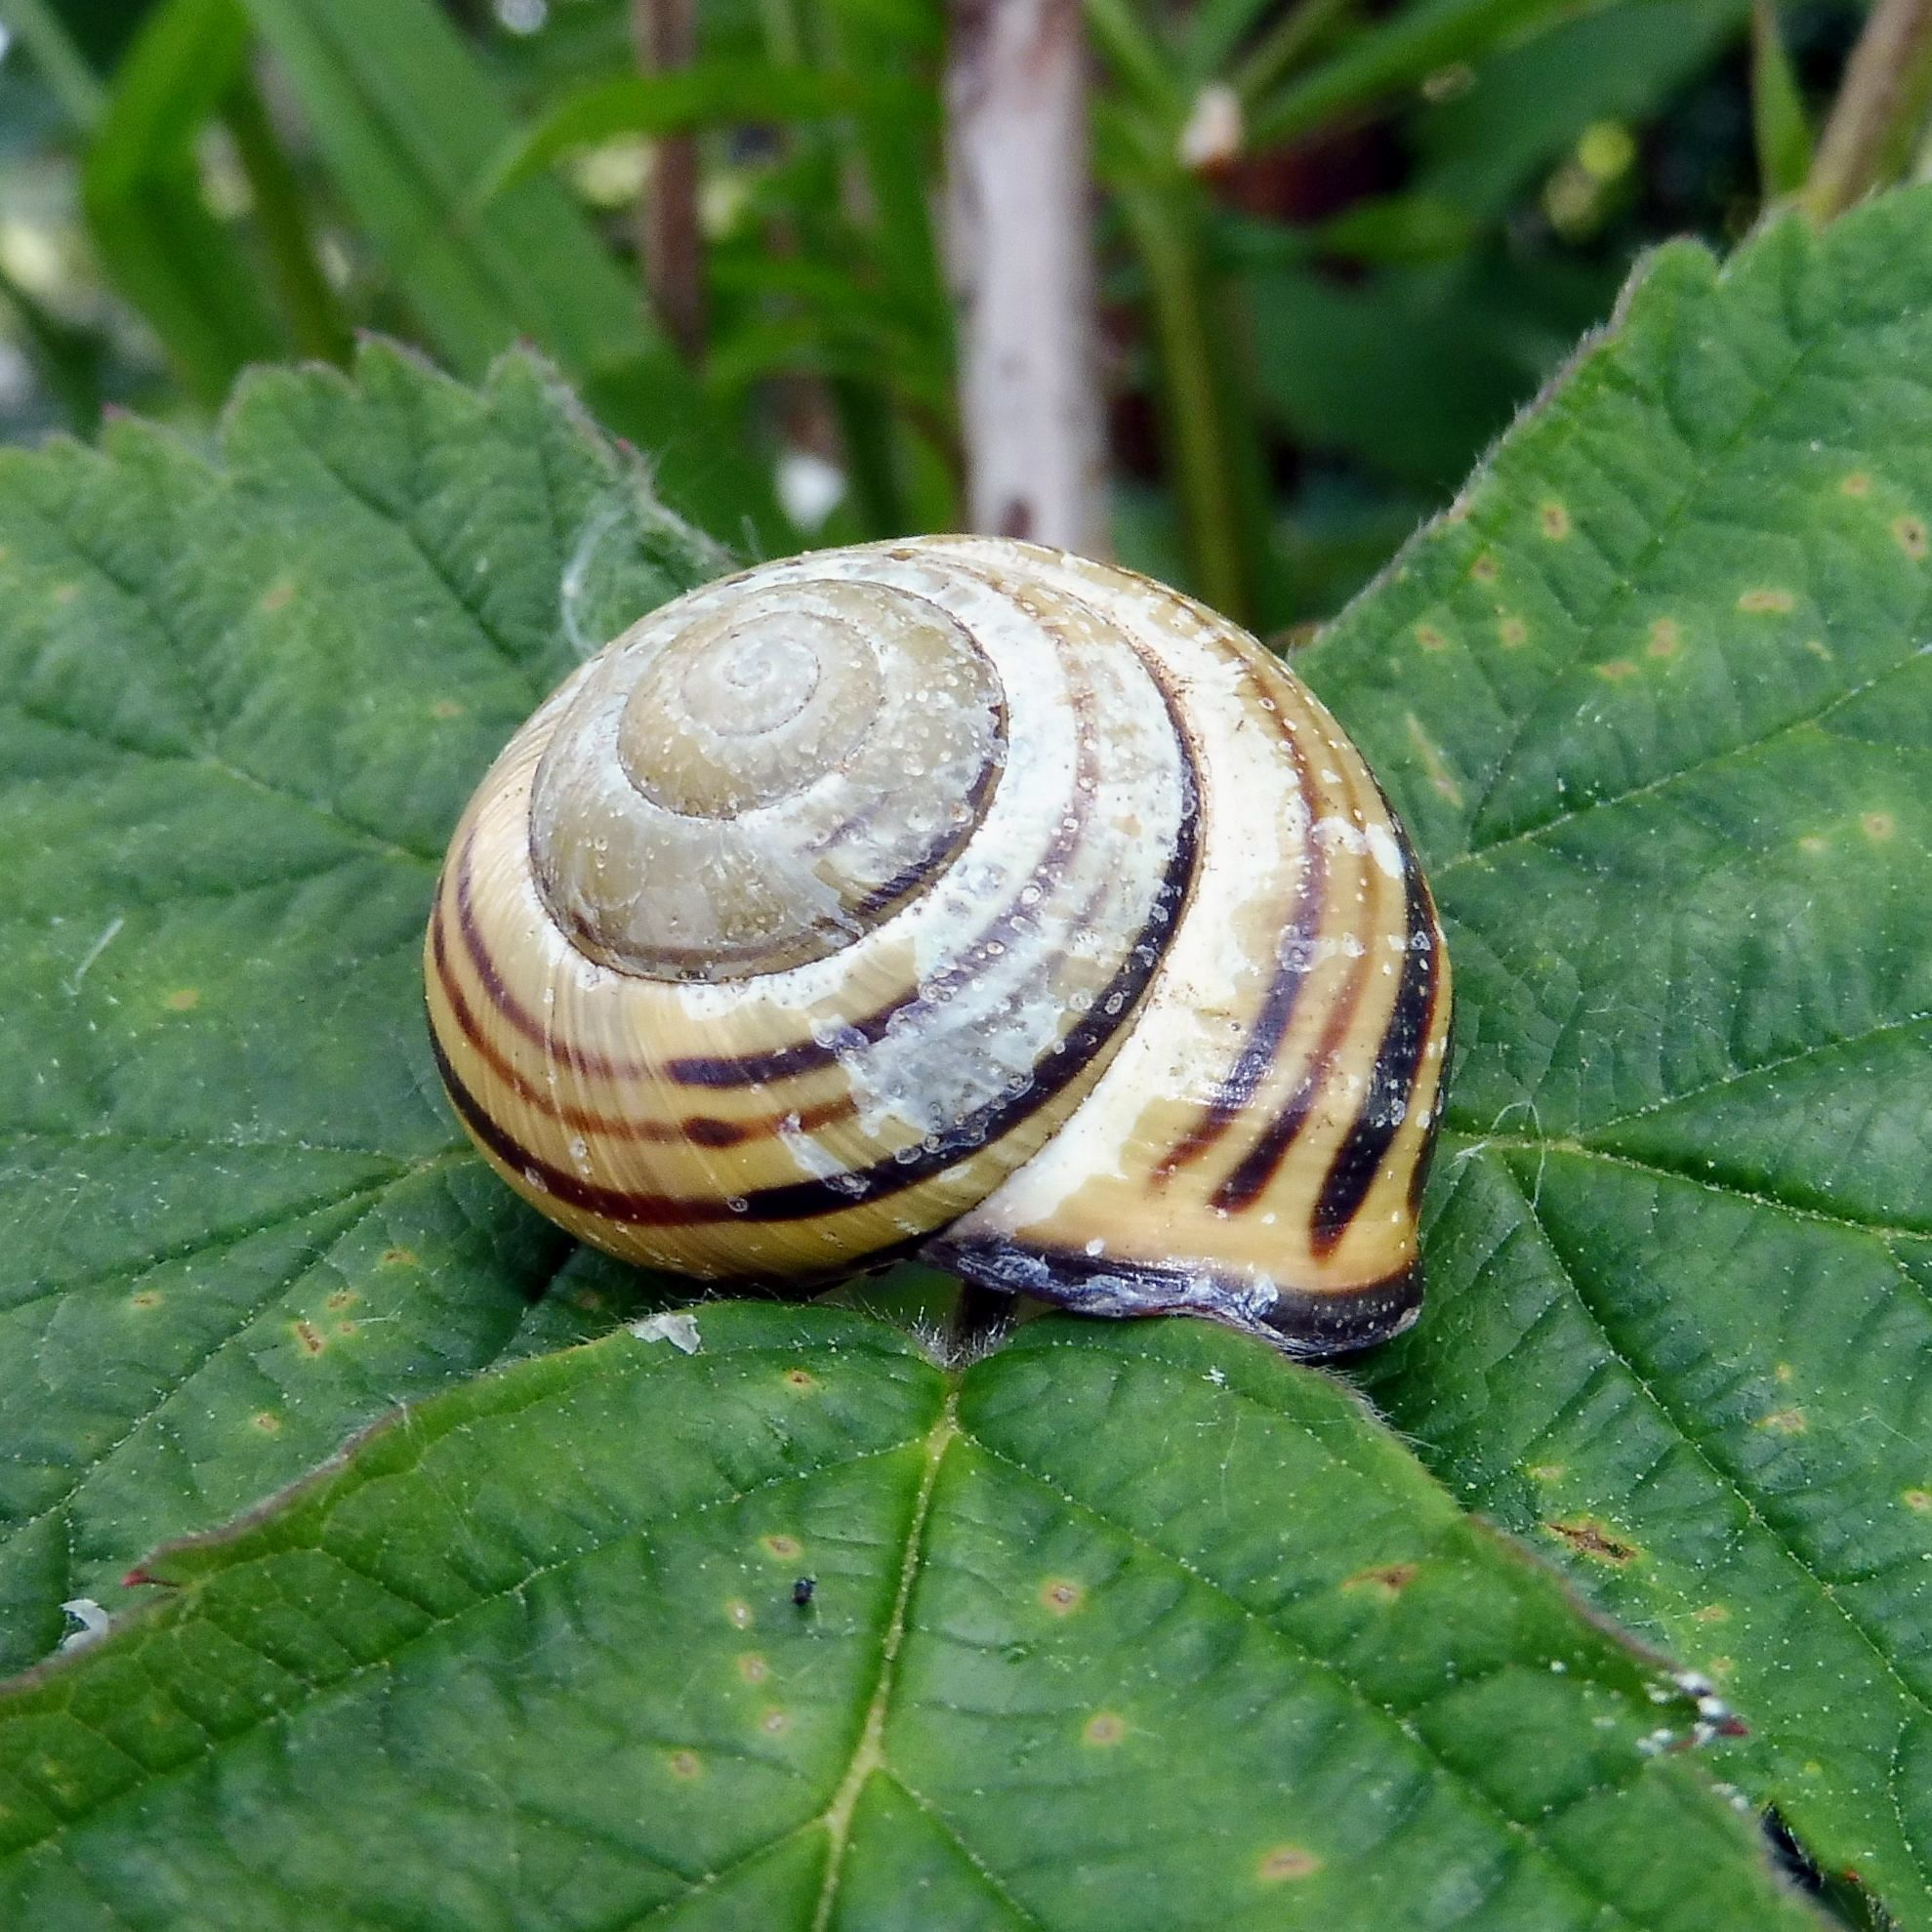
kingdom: Animalia
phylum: Mollusca
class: Gastropoda
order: Stylommatophora
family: Helicidae
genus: Cepaea
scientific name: Cepaea nemoralis
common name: Grovesnail
